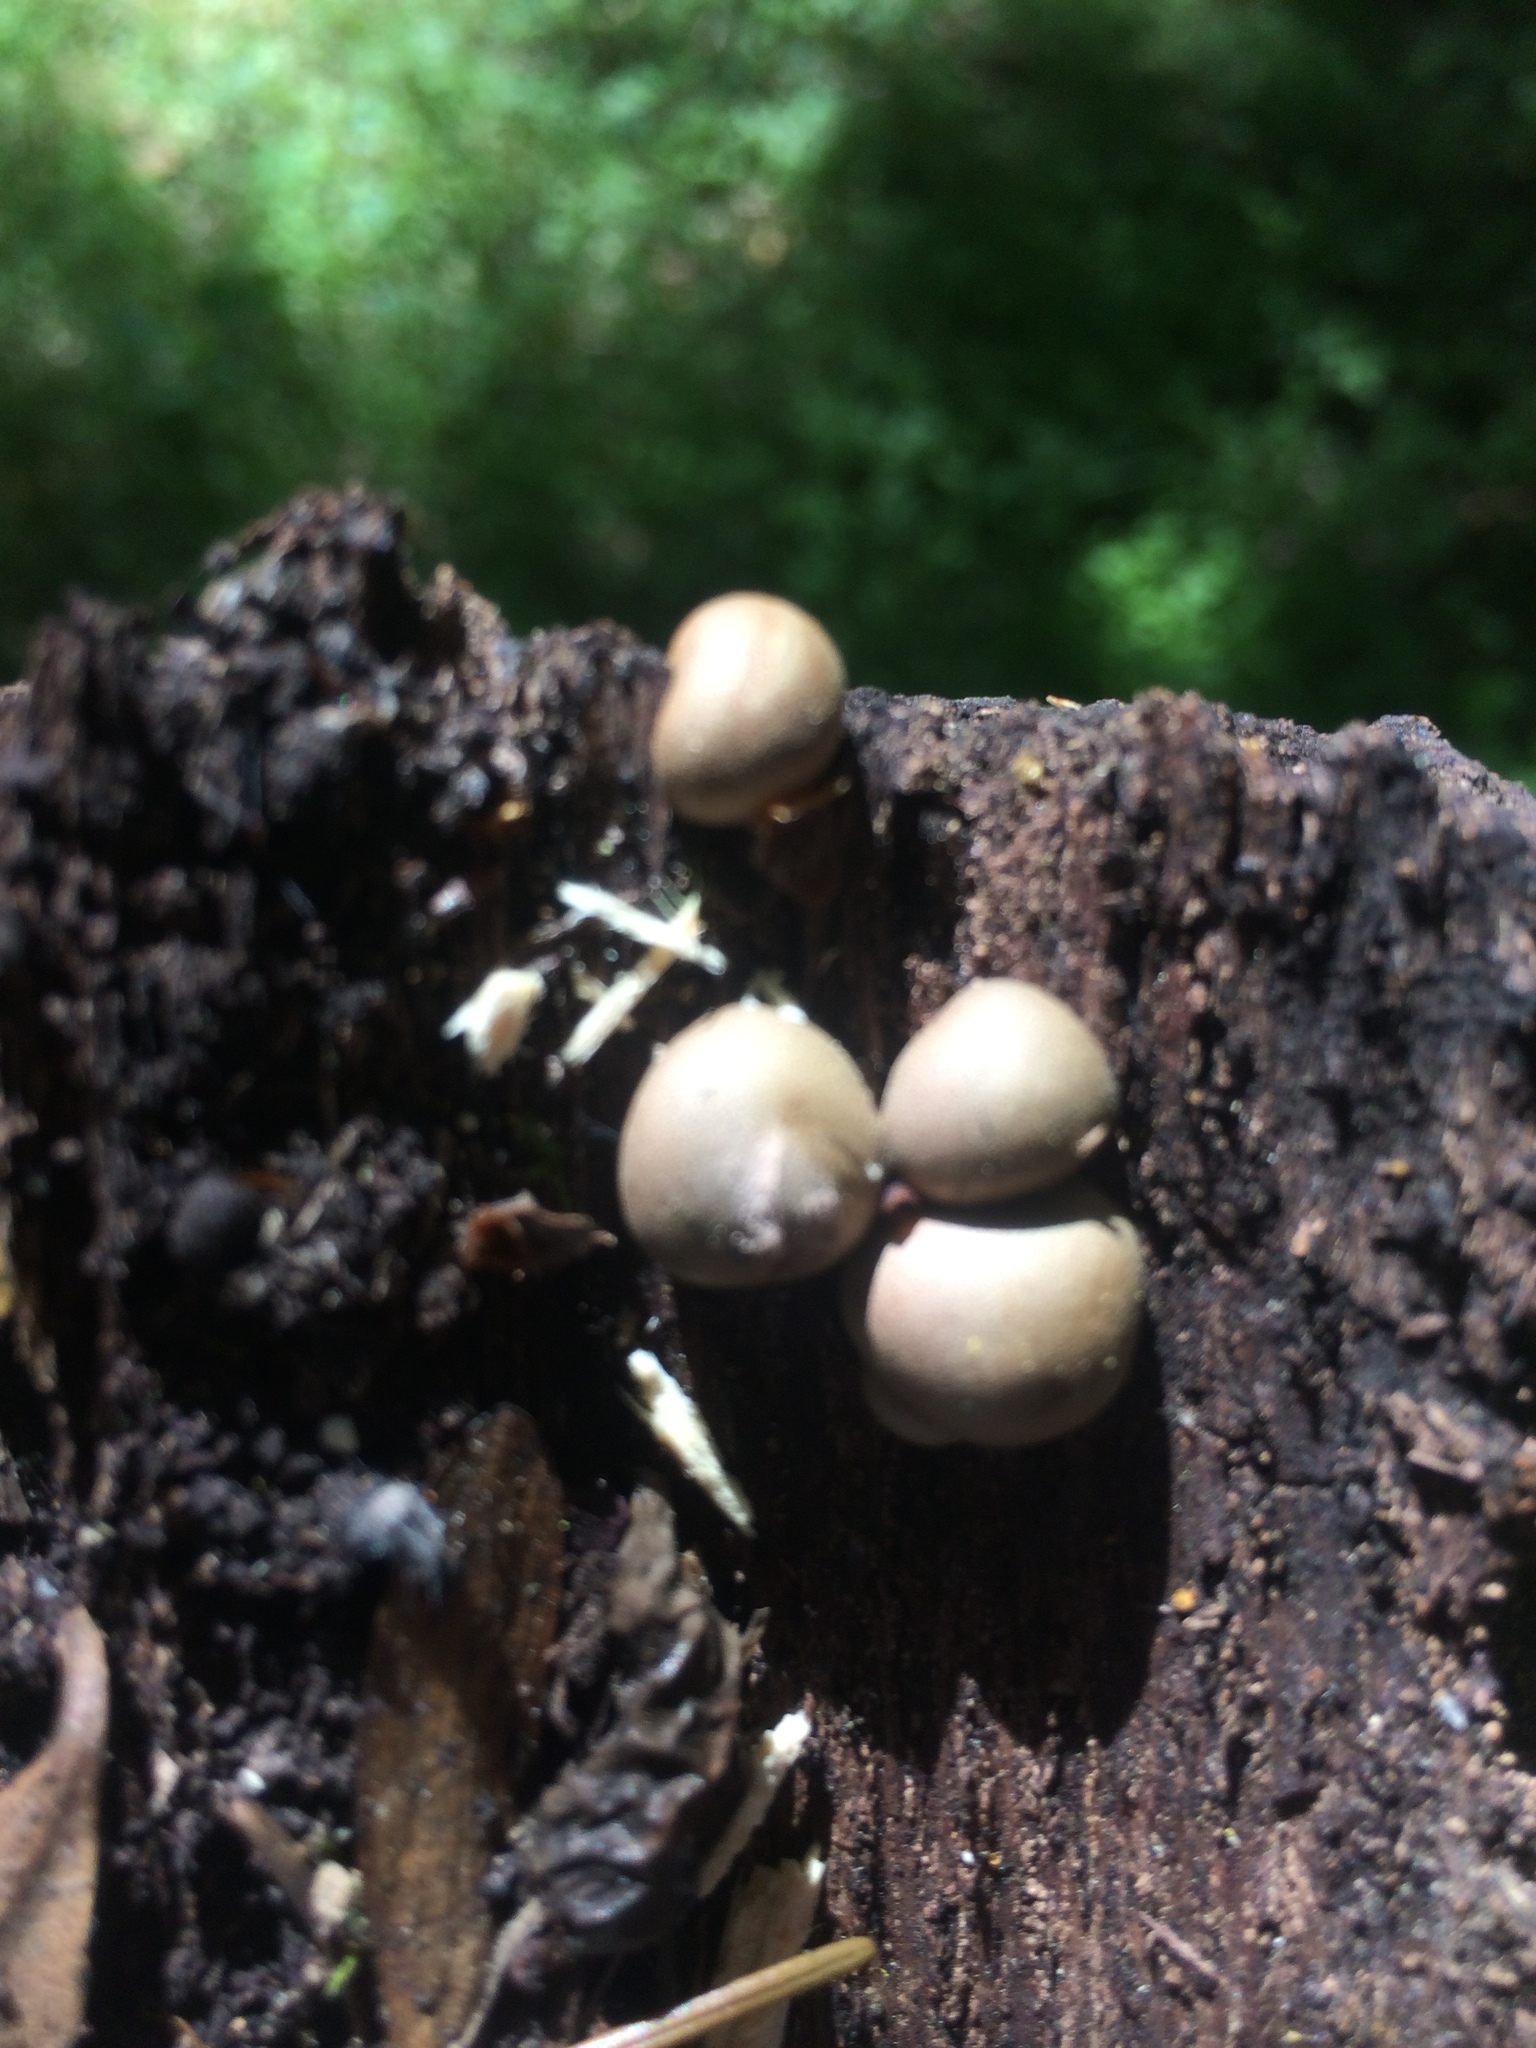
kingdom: Protozoa
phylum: Mycetozoa
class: Myxomycetes
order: Cribrariales
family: Tubiferaceae
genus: Lycogala
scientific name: Lycogala epidendrum
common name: Wolf's milk
